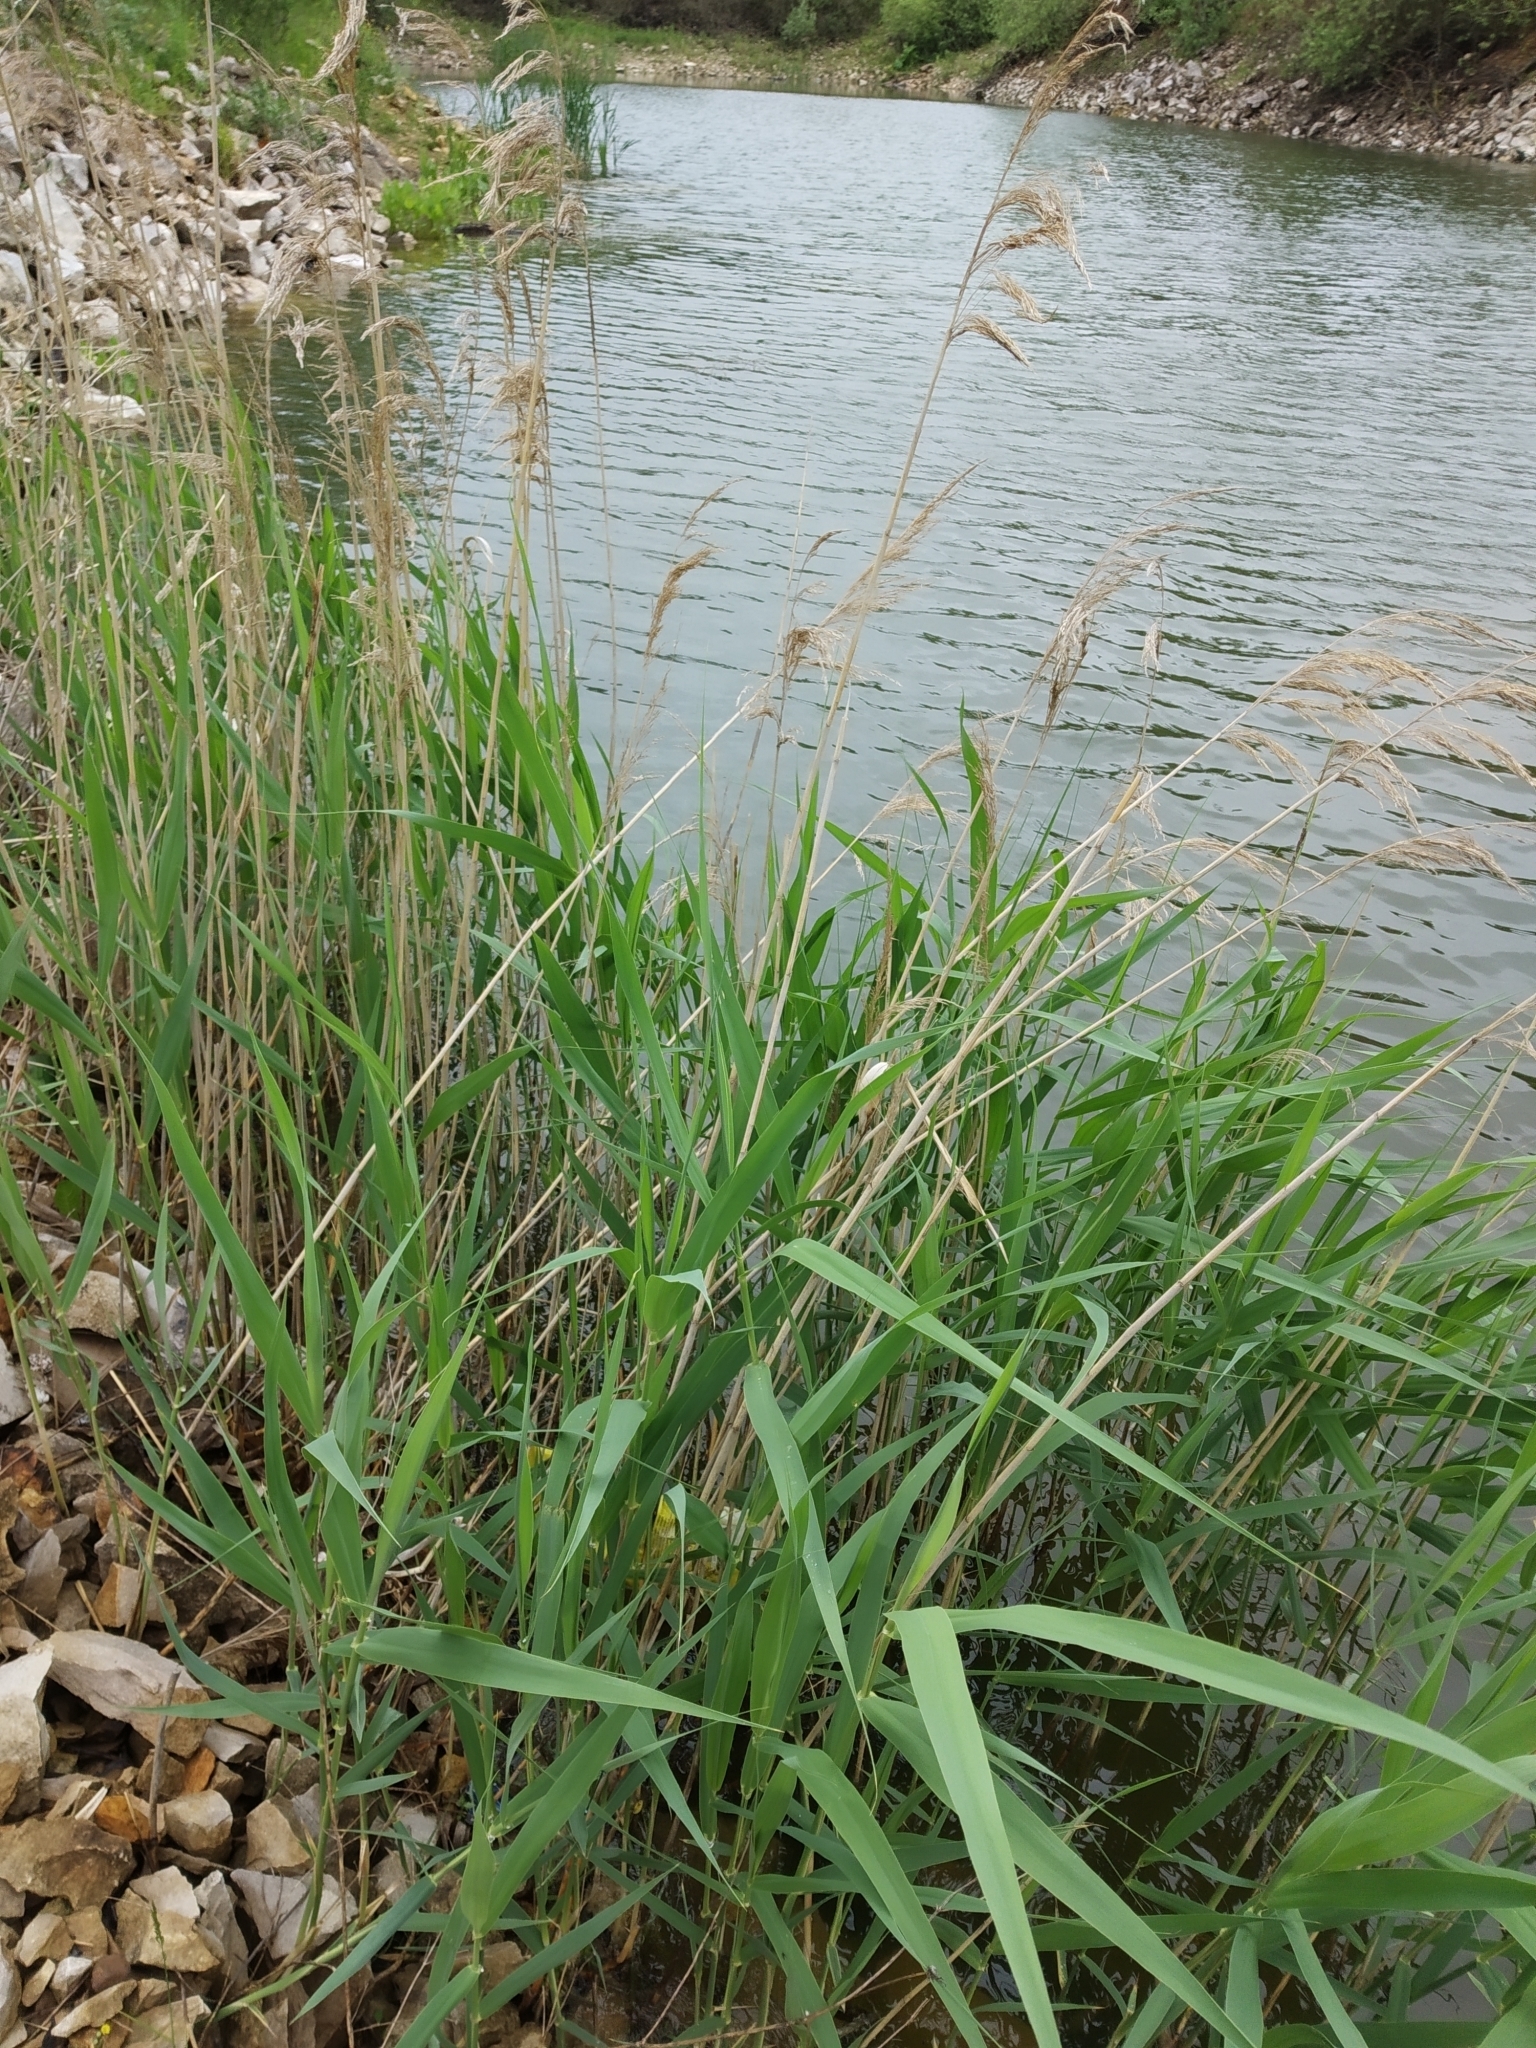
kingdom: Plantae
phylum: Tracheophyta
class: Liliopsida
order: Poales
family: Poaceae
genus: Phragmites
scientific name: Phragmites australis
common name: Common reed
